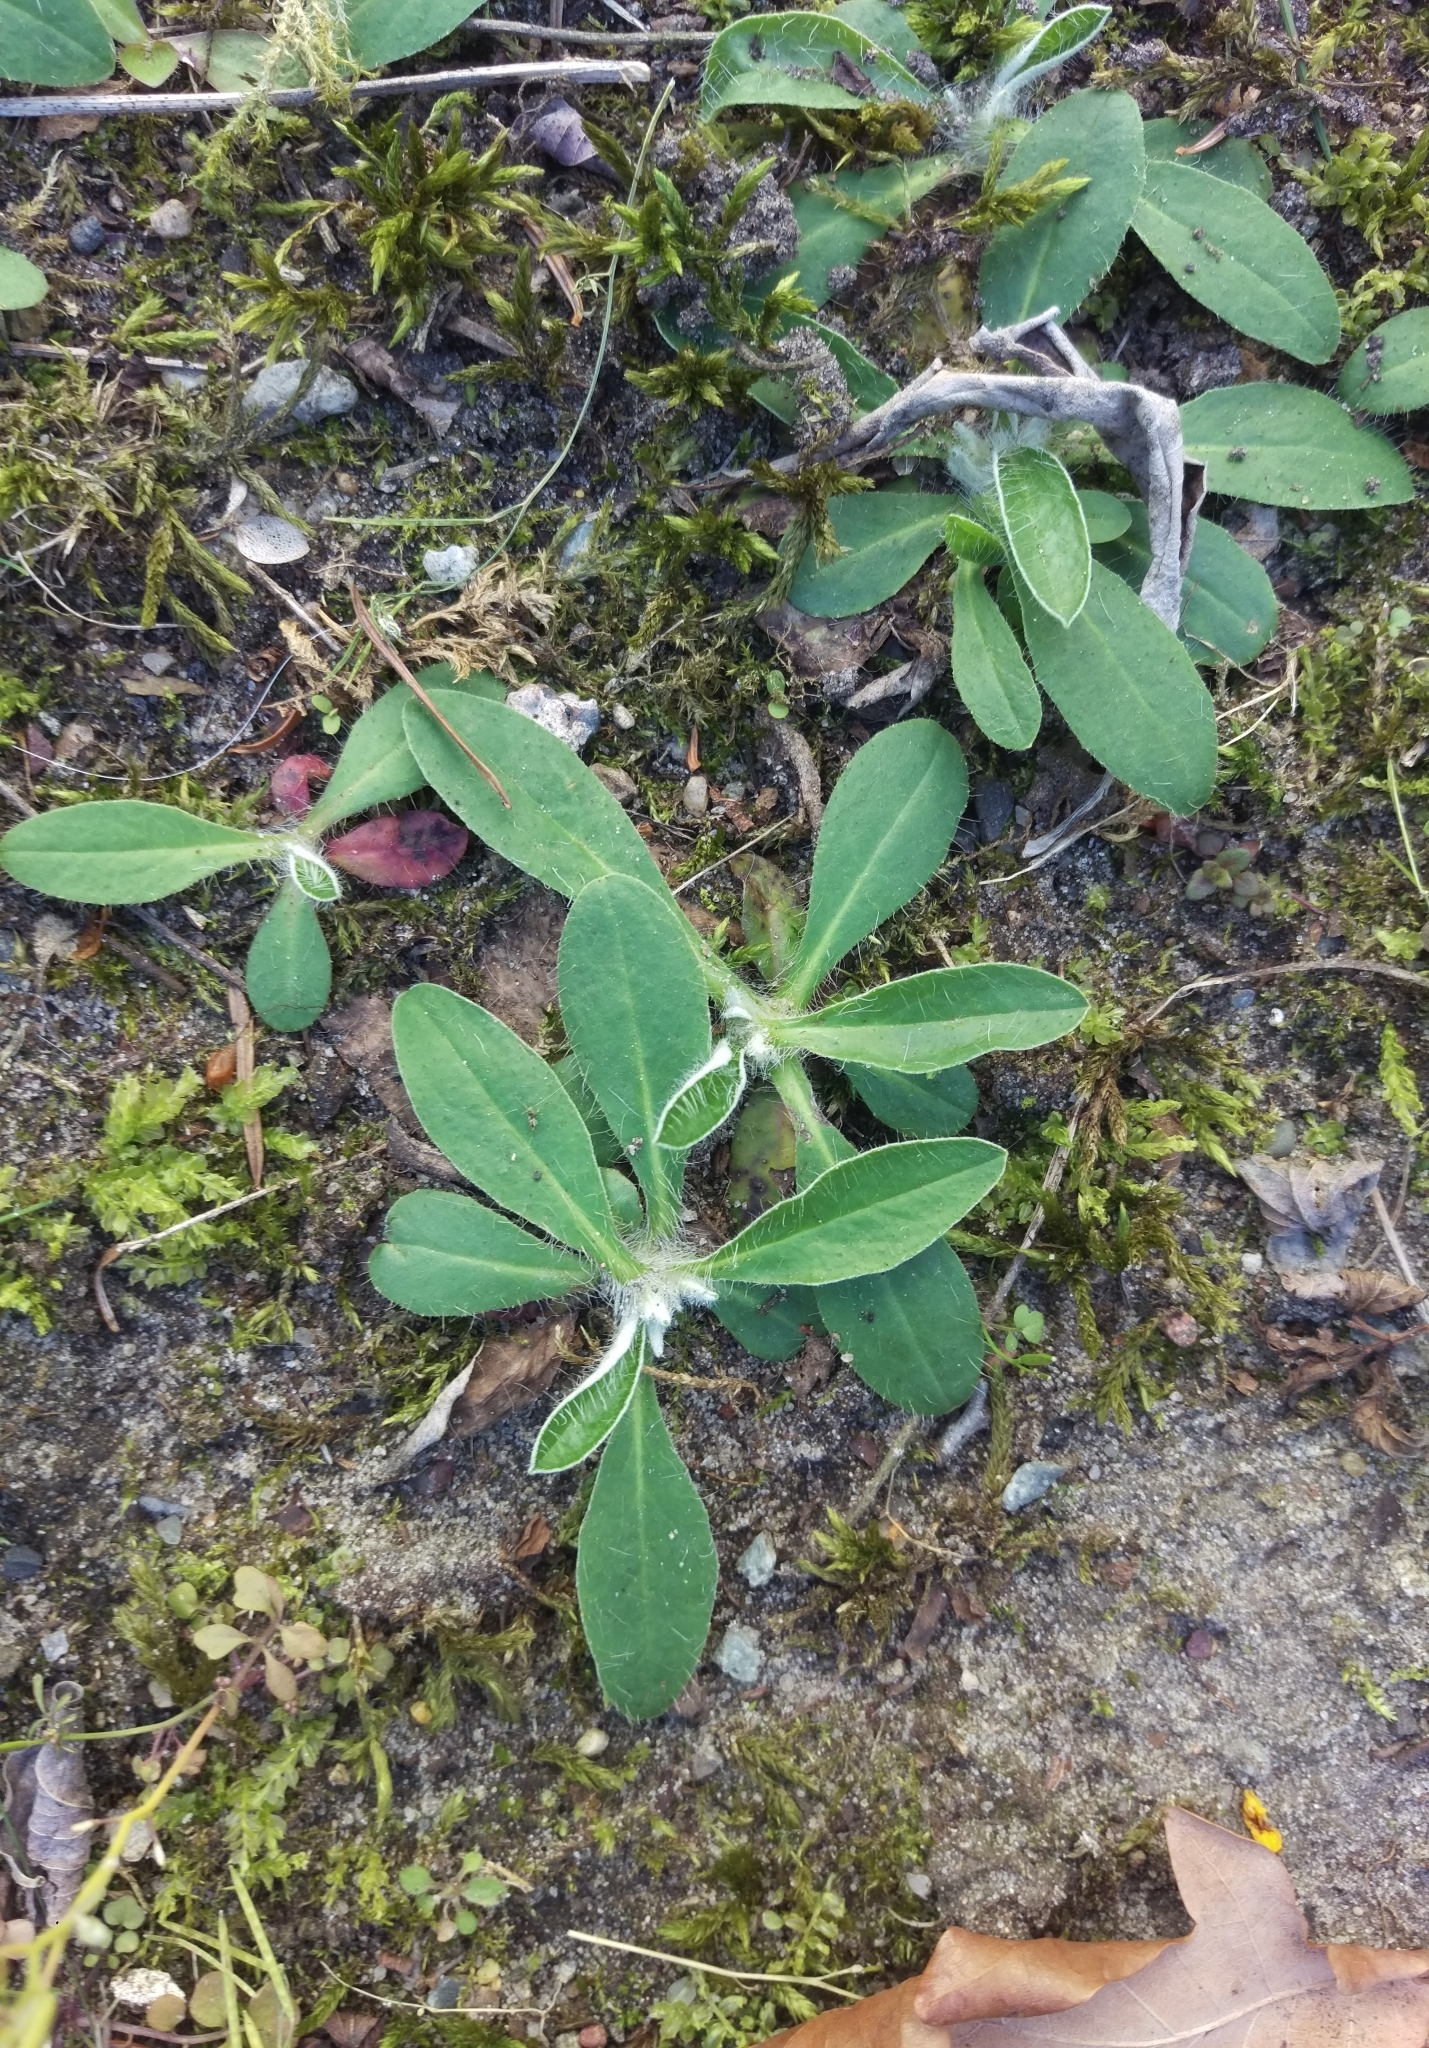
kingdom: Plantae
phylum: Tracheophyta
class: Magnoliopsida
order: Asterales
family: Asteraceae
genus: Pilosella
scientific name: Pilosella officinarum
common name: Mouse-ear hawkweed
